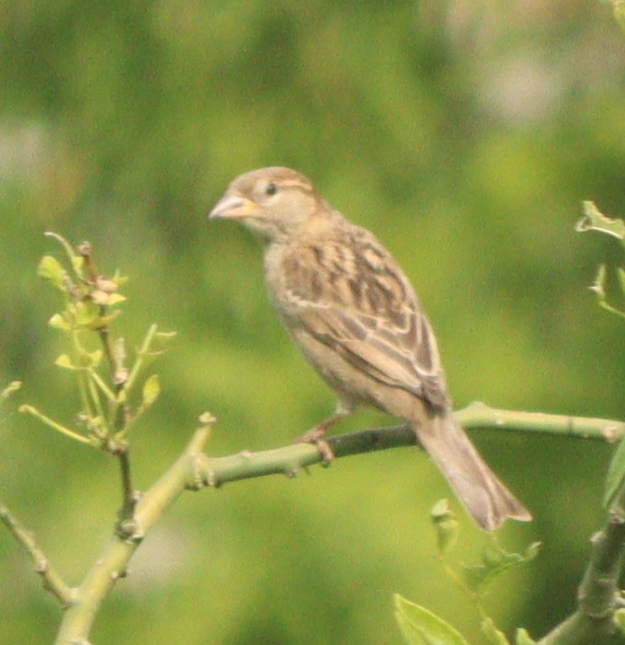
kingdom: Animalia
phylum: Chordata
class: Aves
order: Passeriformes
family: Passeridae
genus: Passer
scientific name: Passer domesticus
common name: House sparrow
